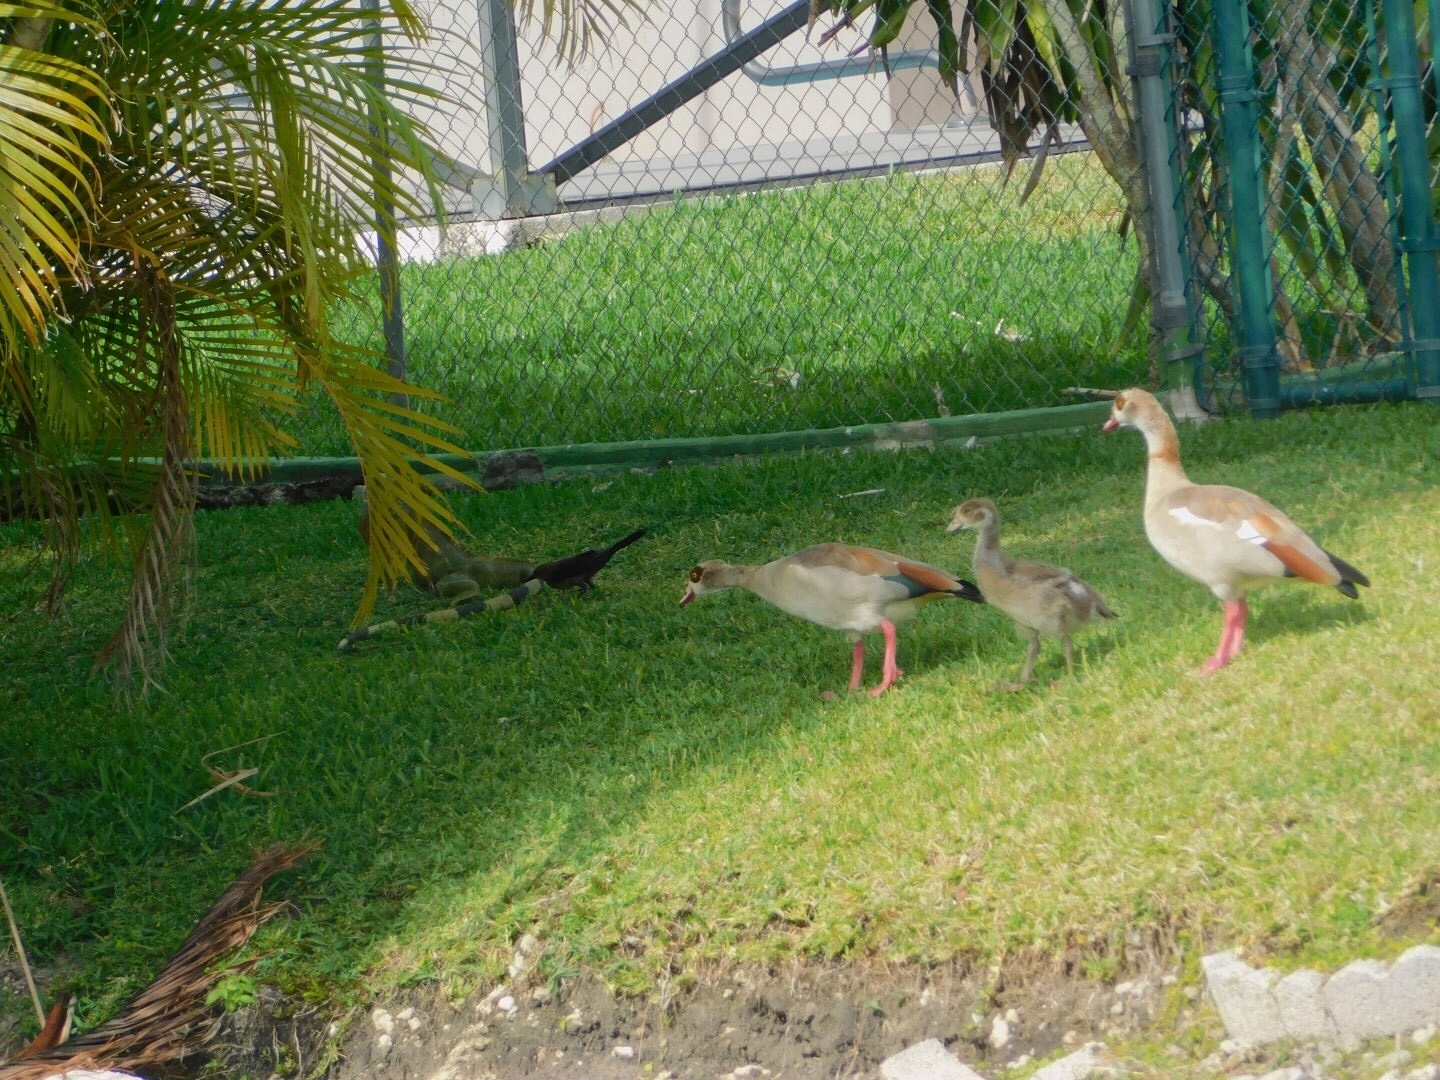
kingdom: Animalia
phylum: Chordata
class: Squamata
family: Iguanidae
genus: Iguana
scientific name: Iguana iguana
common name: Green iguana
